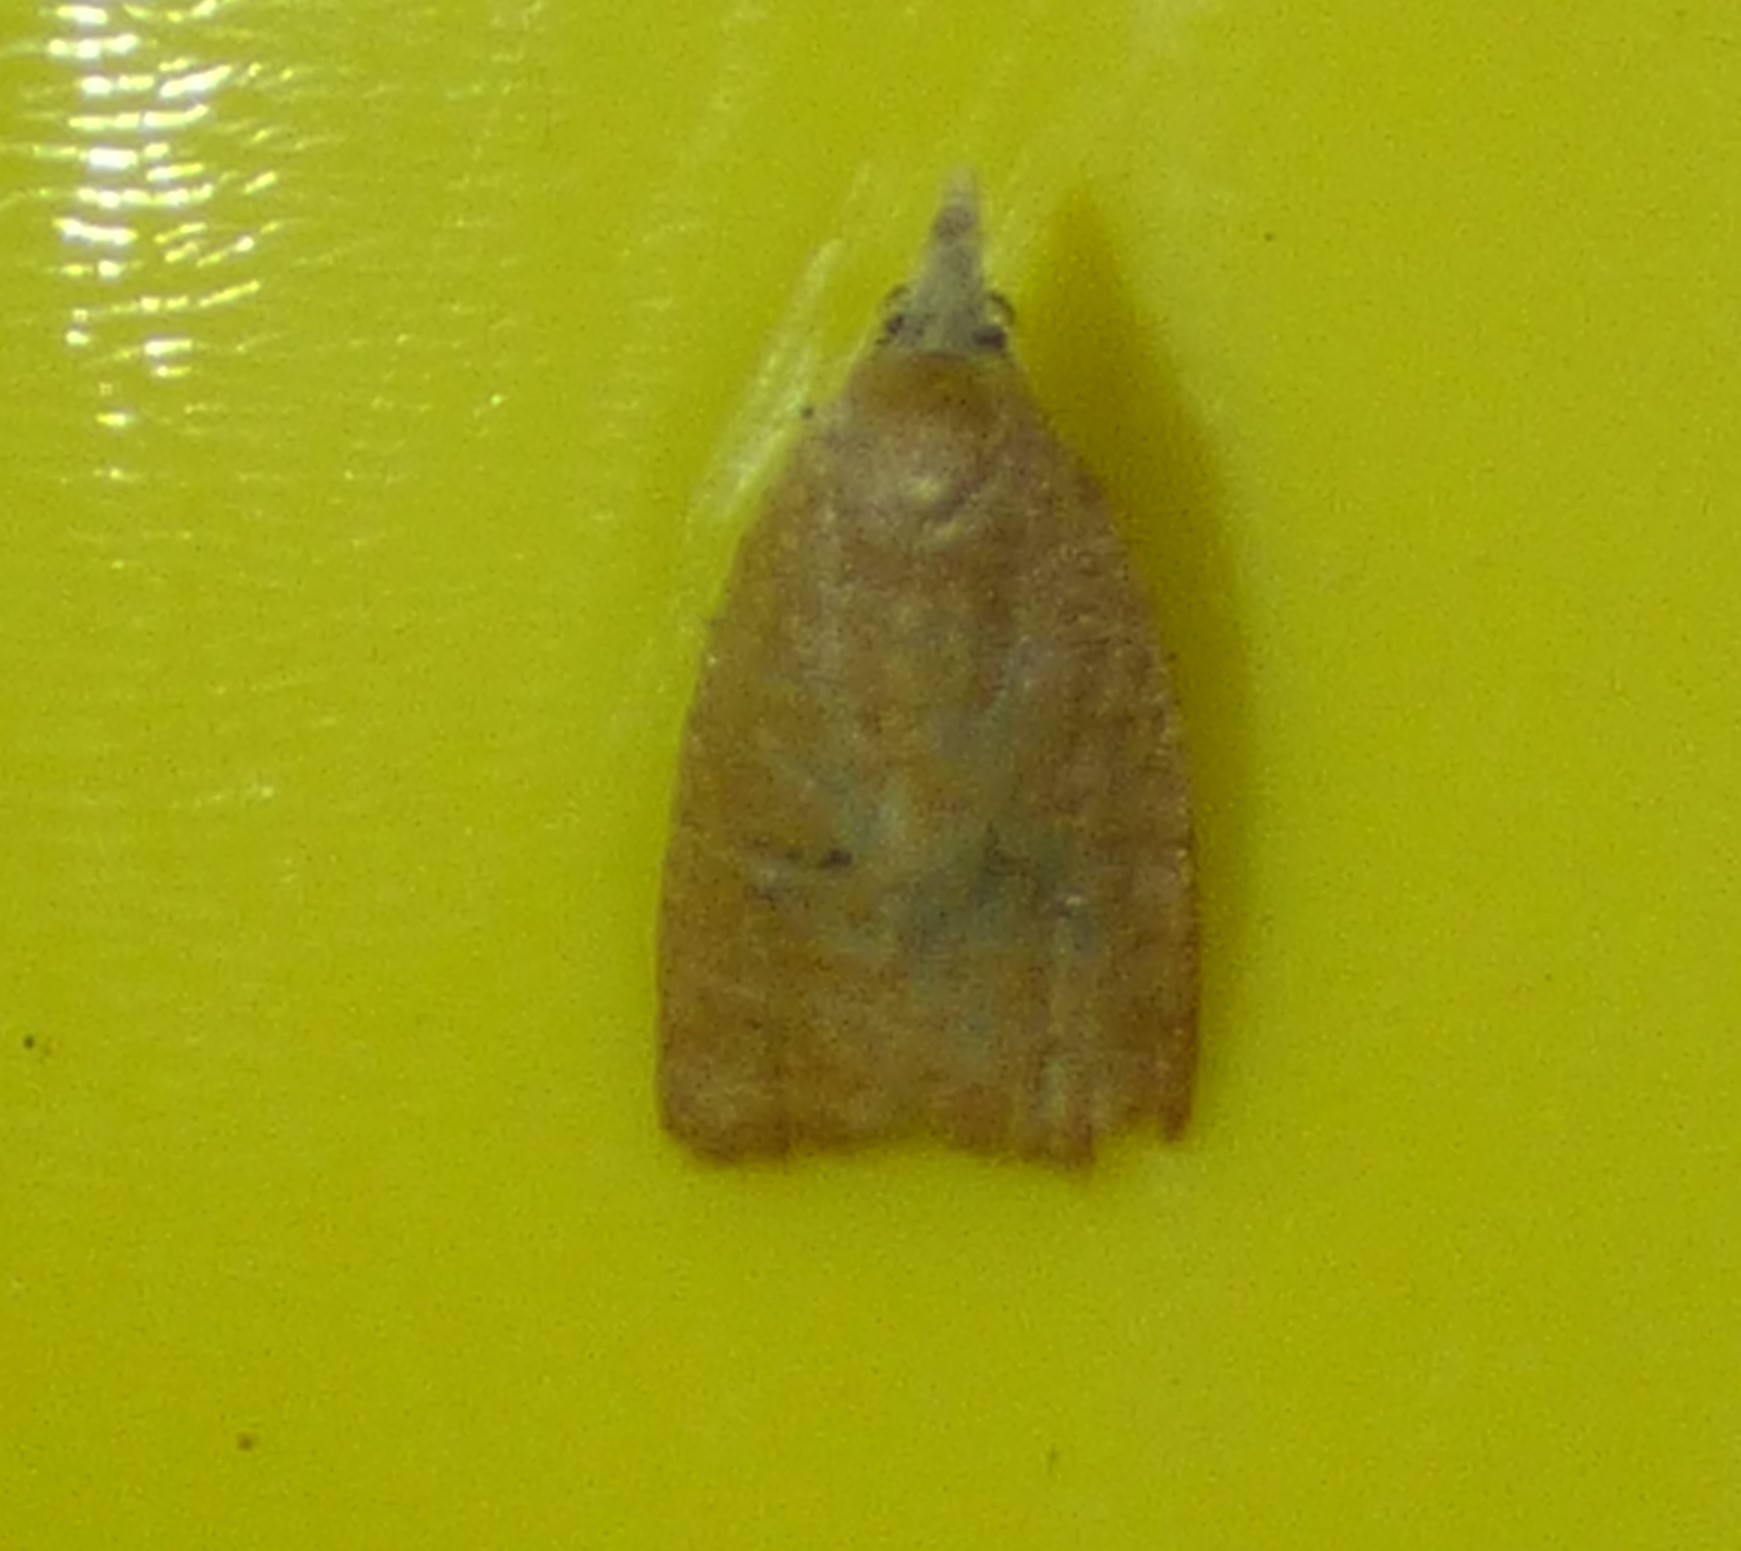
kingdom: Animalia
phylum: Arthropoda
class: Insecta
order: Lepidoptera
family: Tortricidae
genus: Sparganothoides
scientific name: Sparganothoides lentiginosana
